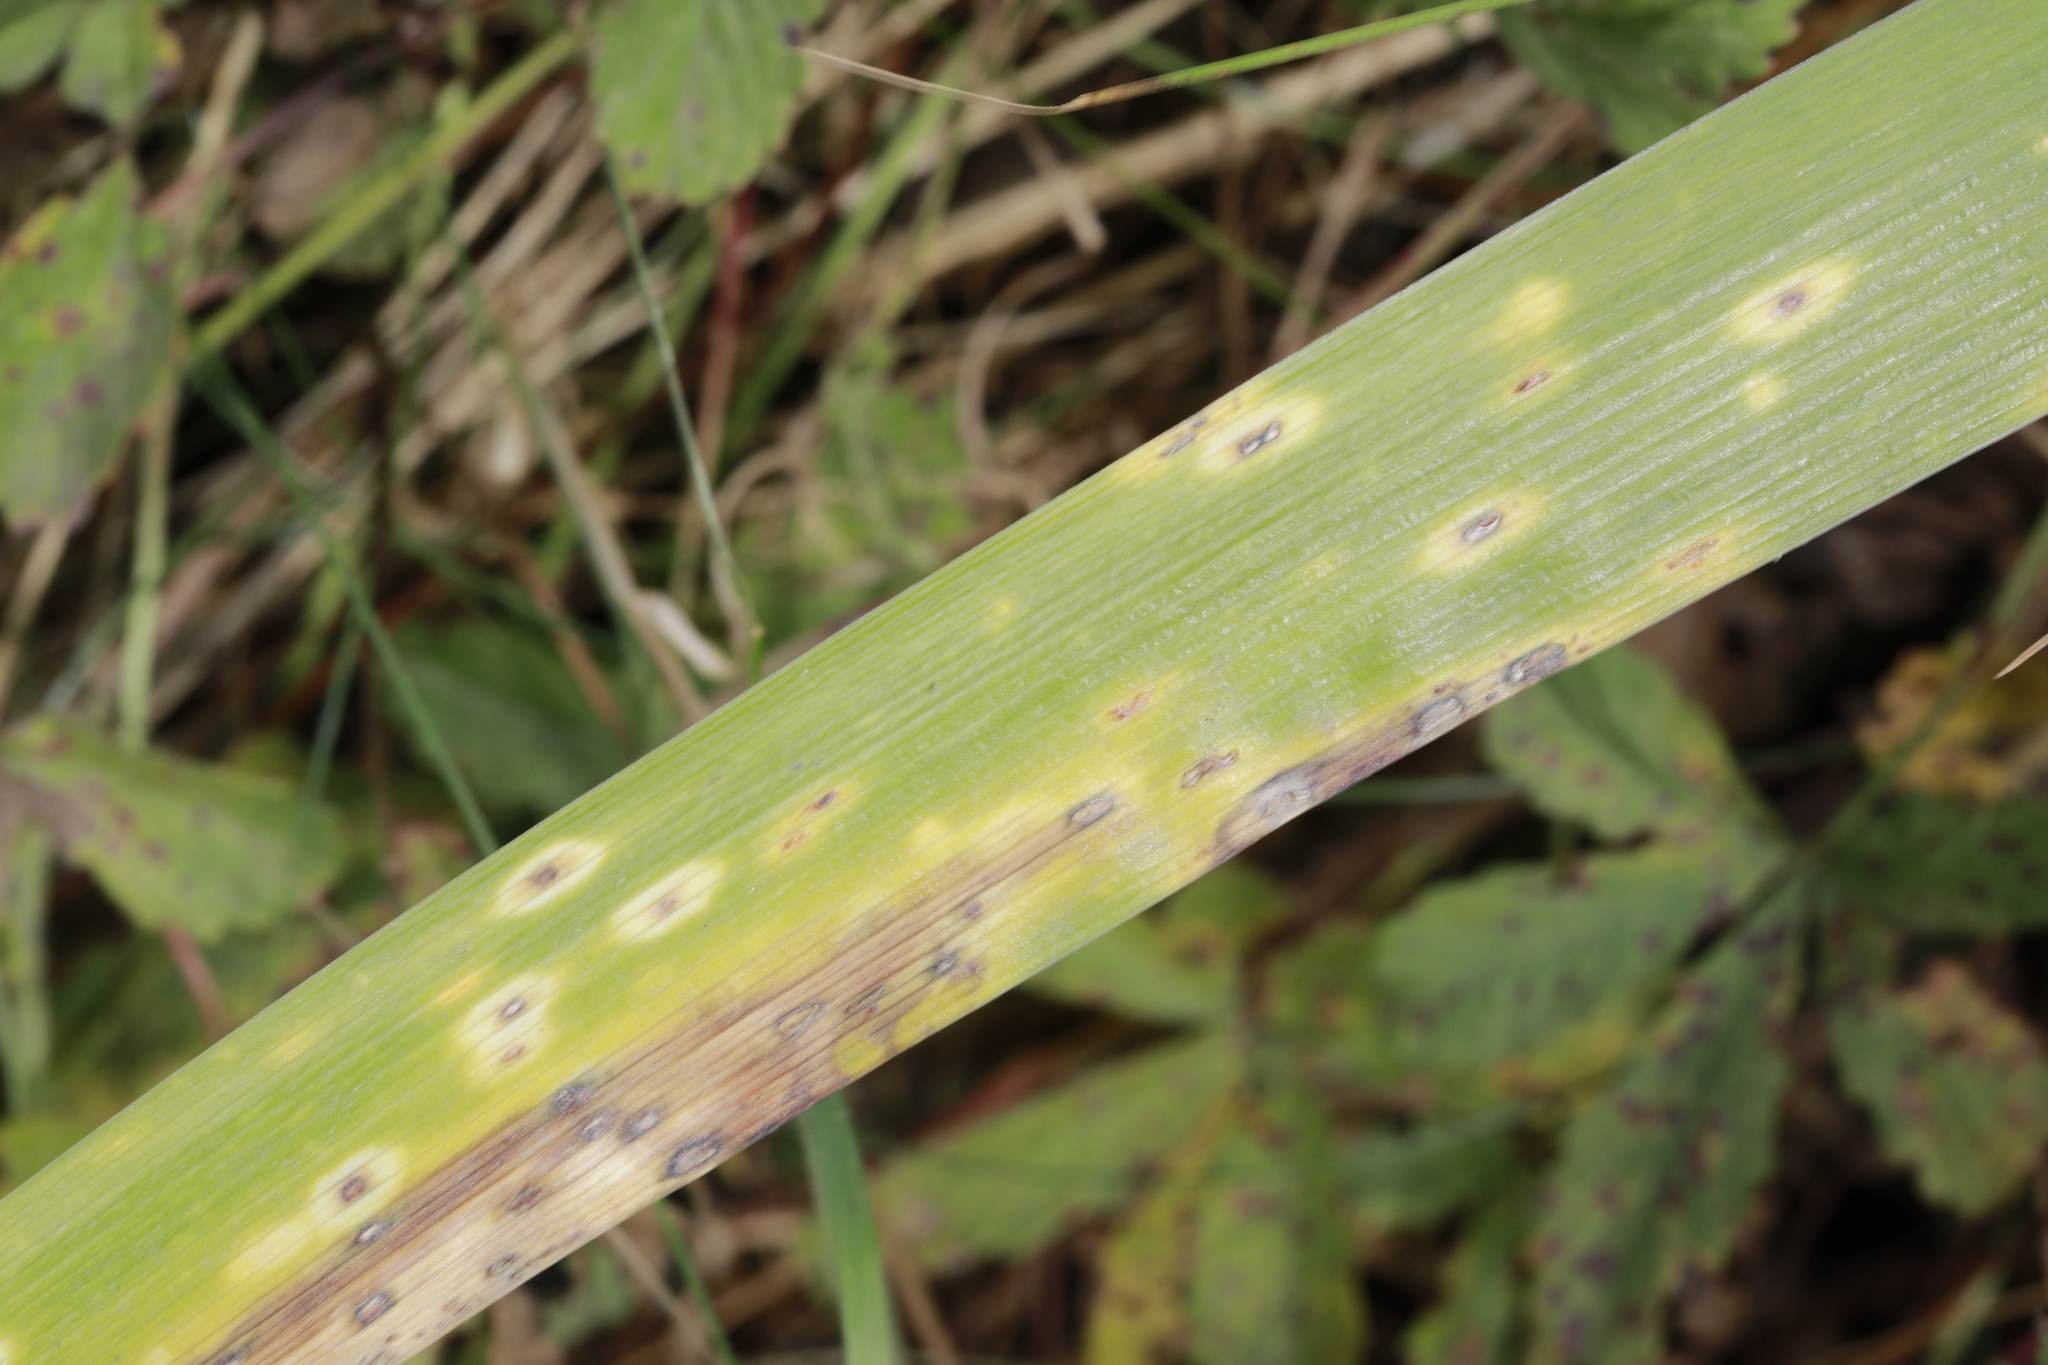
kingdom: Plantae
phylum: Tracheophyta
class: Liliopsida
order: Asparagales
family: Iridaceae
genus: Iris
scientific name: Iris foetidissima
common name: Stinking iris
